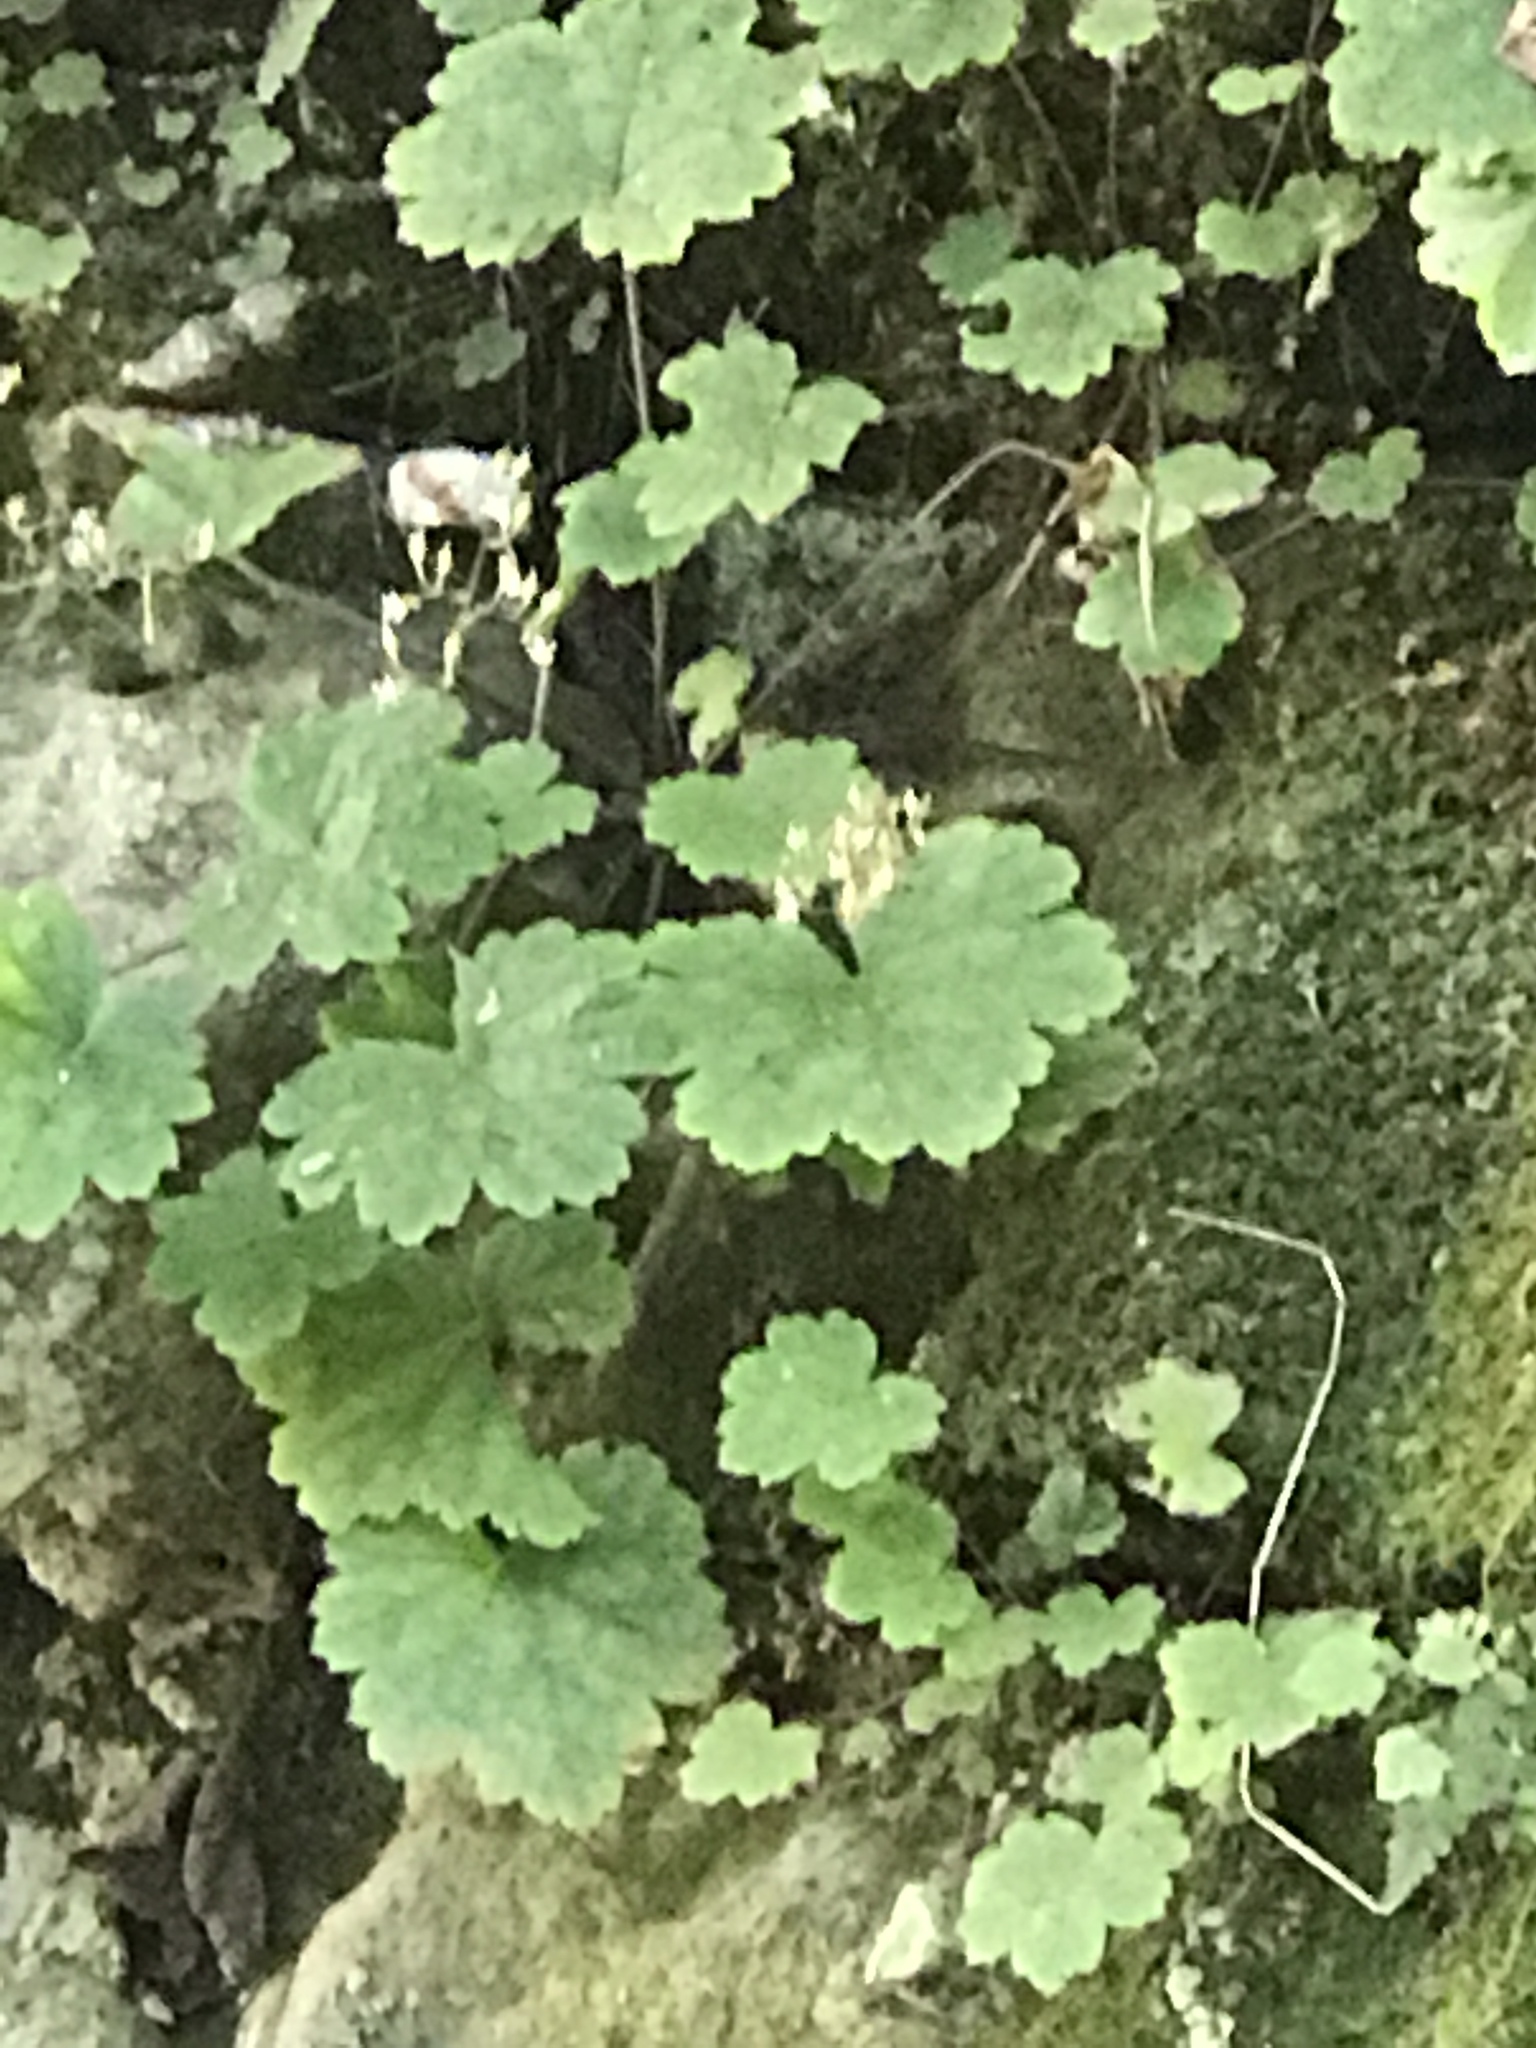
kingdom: Plantae
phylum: Tracheophyta
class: Magnoliopsida
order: Saxifragales
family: Saxifragaceae
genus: Heuchera
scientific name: Heuchera missouriensis
